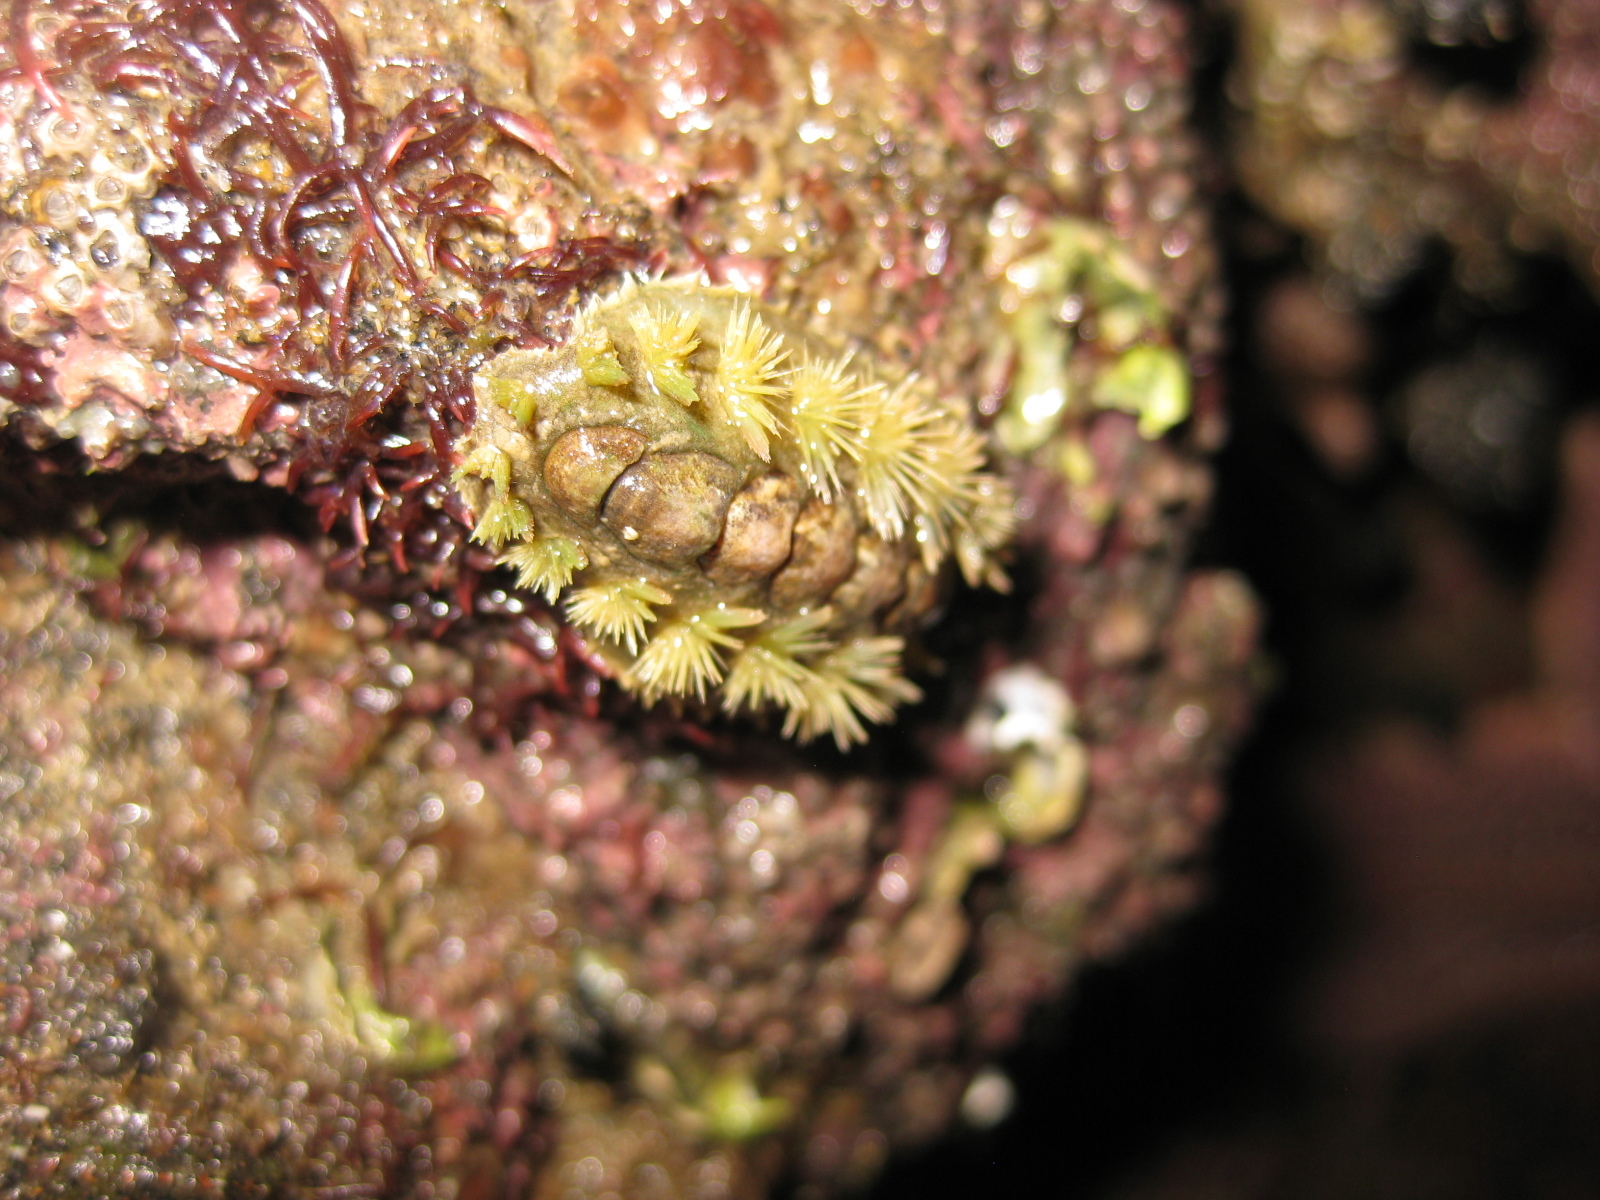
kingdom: Animalia
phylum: Mollusca
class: Polyplacophora
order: Chitonida
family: Acanthochitonidae
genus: Acanthochitona
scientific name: Acanthochitona zelandica
